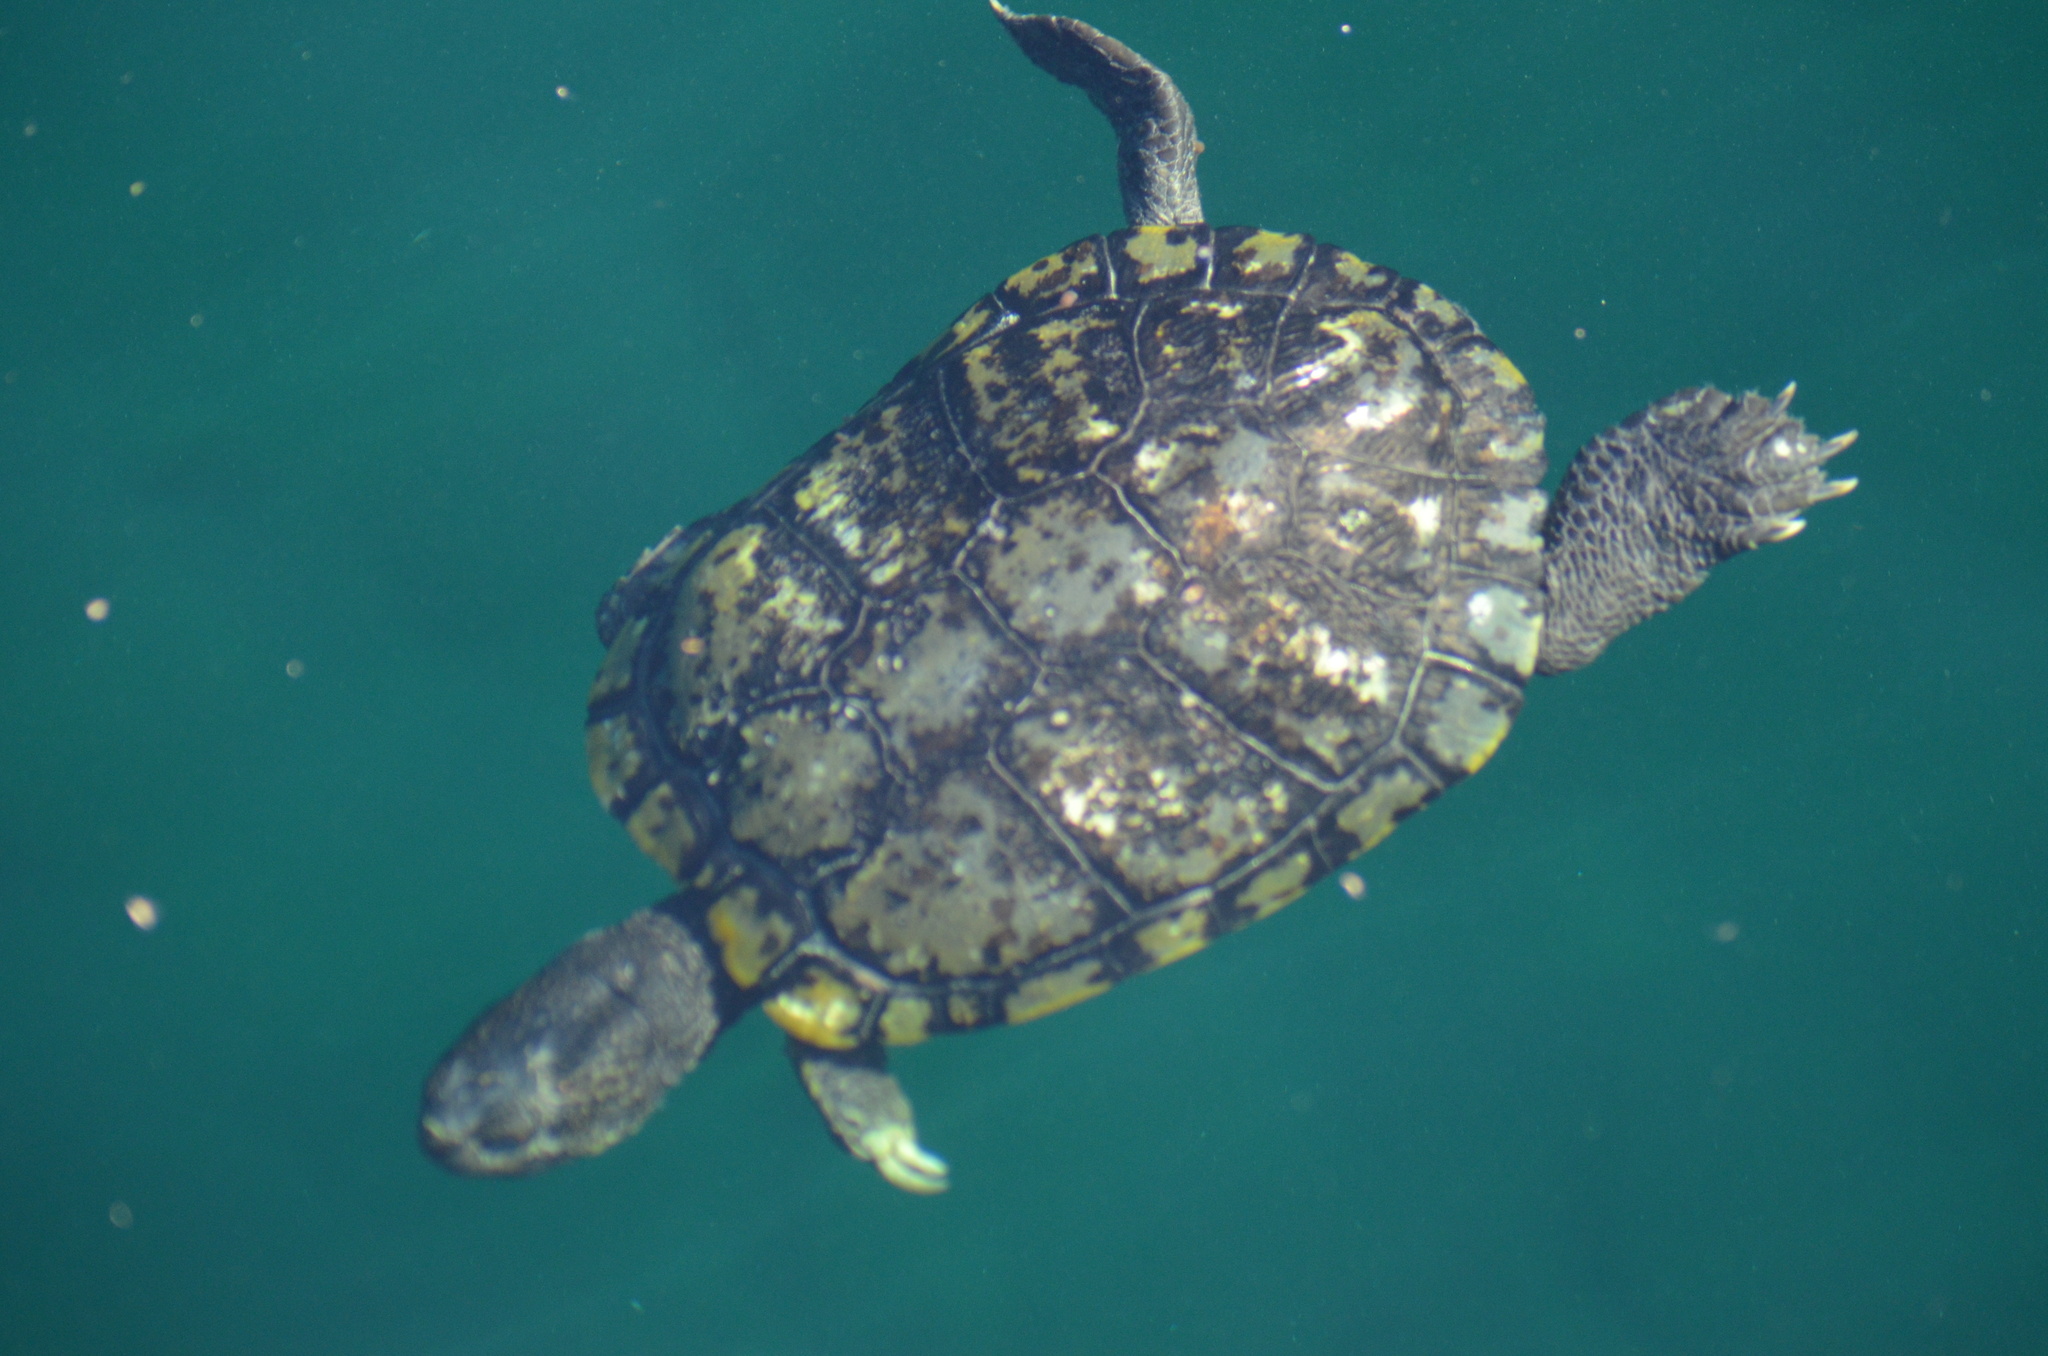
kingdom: Animalia
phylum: Chordata
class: Testudines
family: Emydidae
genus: Trachemys
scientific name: Trachemys scripta
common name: Slider
